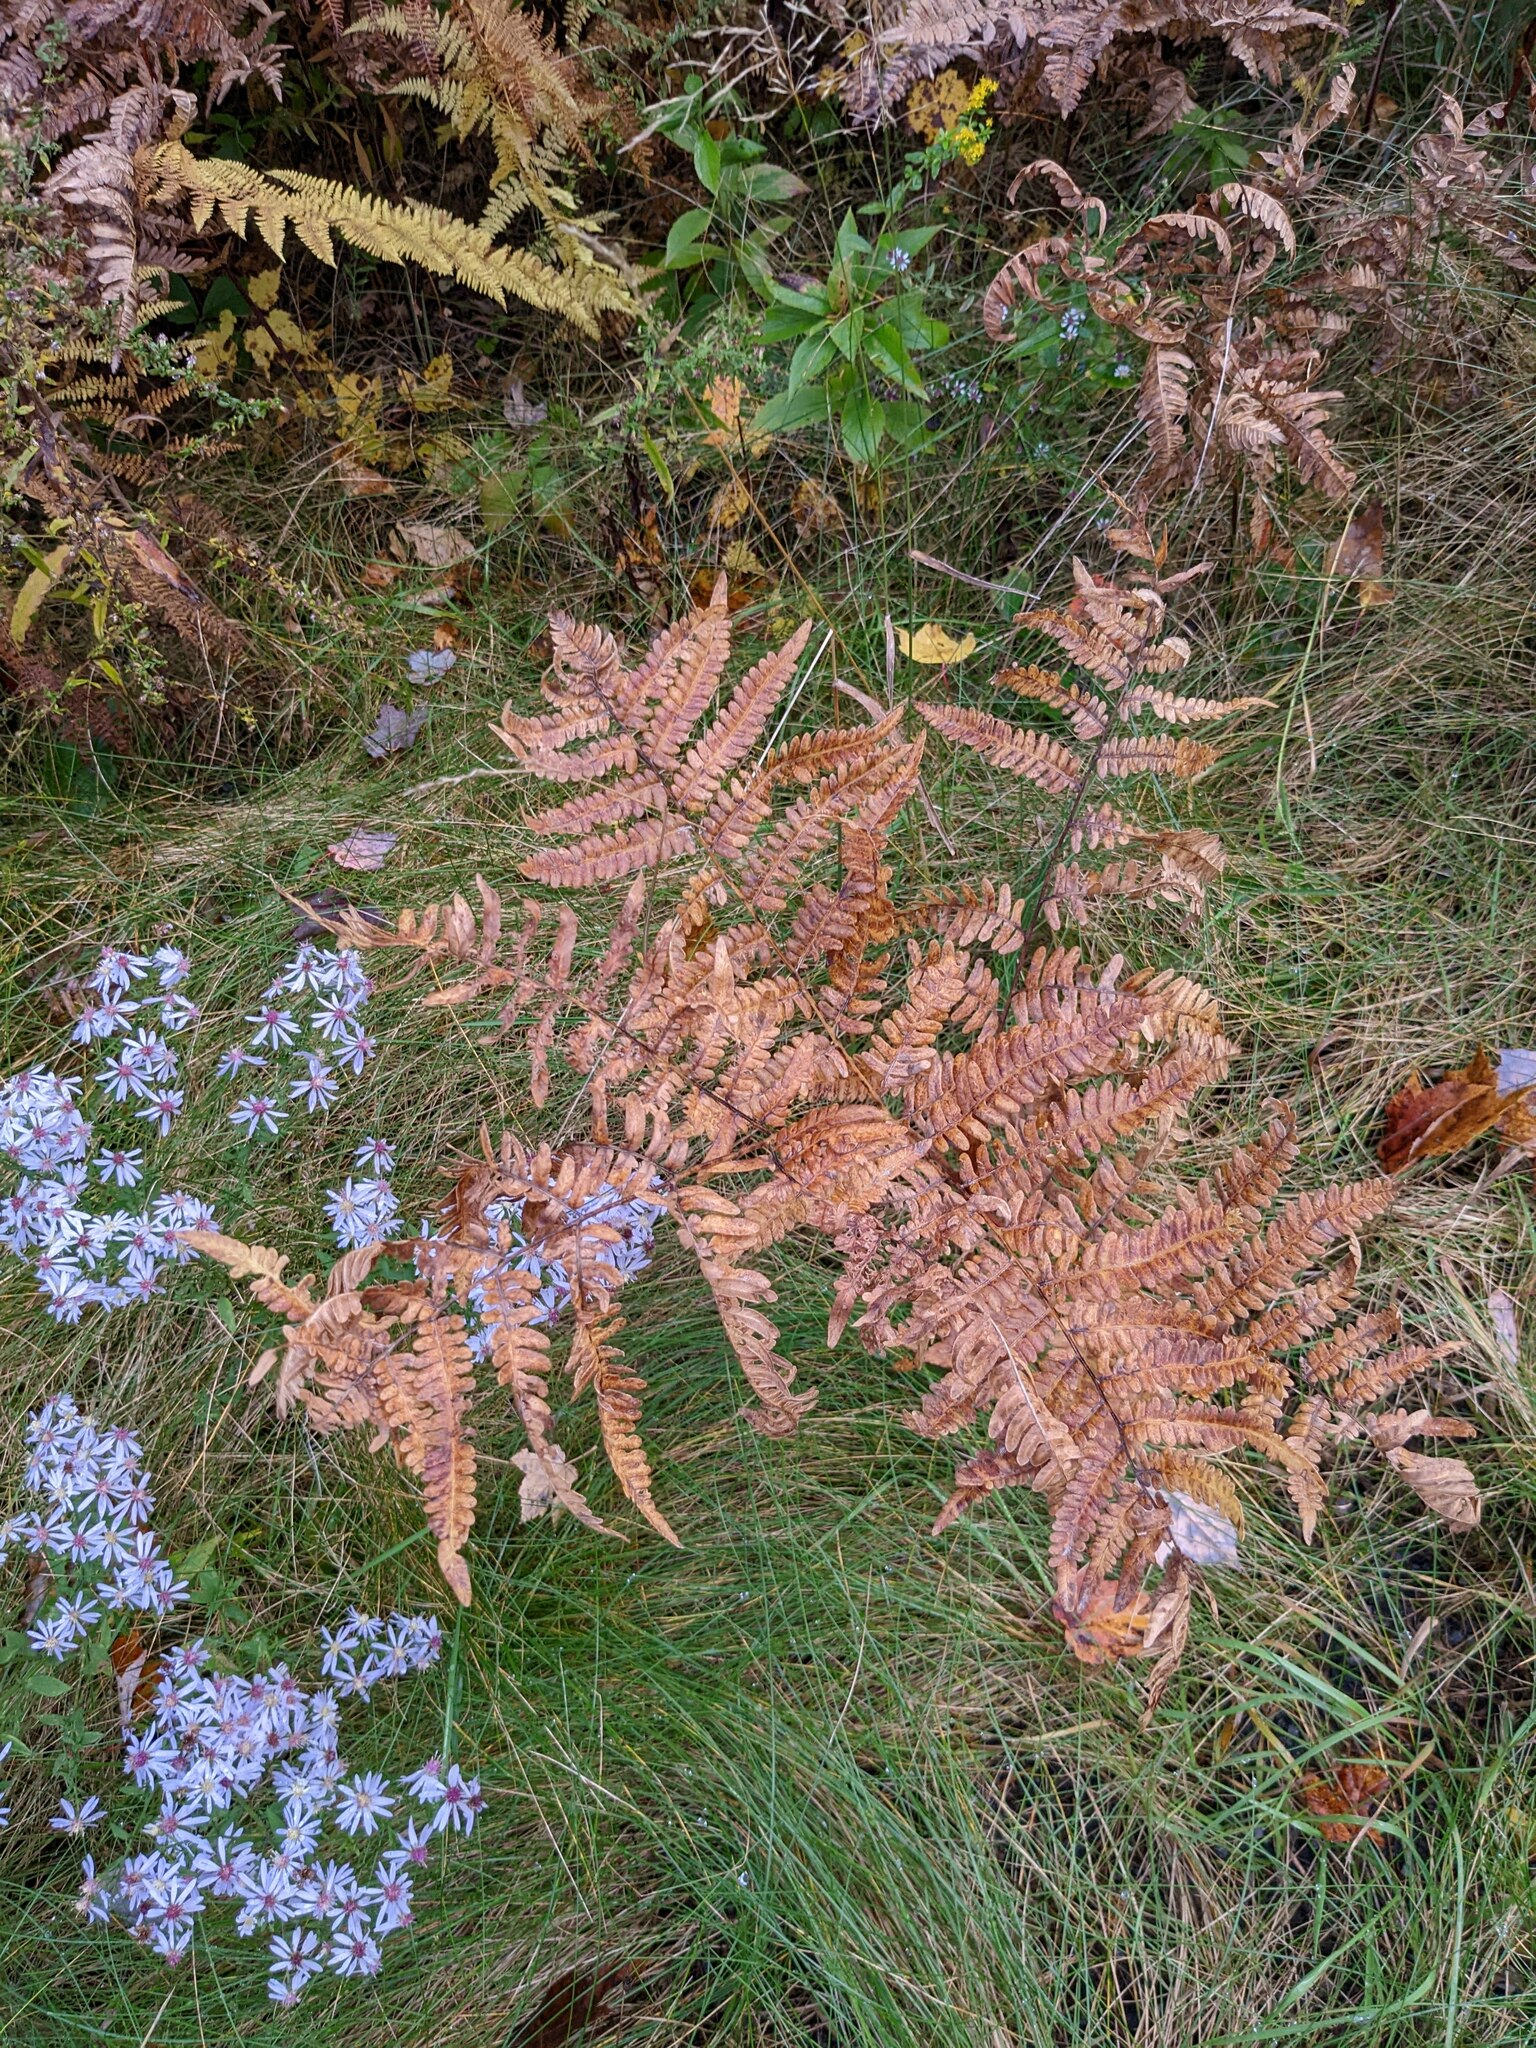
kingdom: Plantae
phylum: Tracheophyta
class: Polypodiopsida
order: Polypodiales
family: Dennstaedtiaceae
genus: Pteridium
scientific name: Pteridium aquilinum
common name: Bracken
